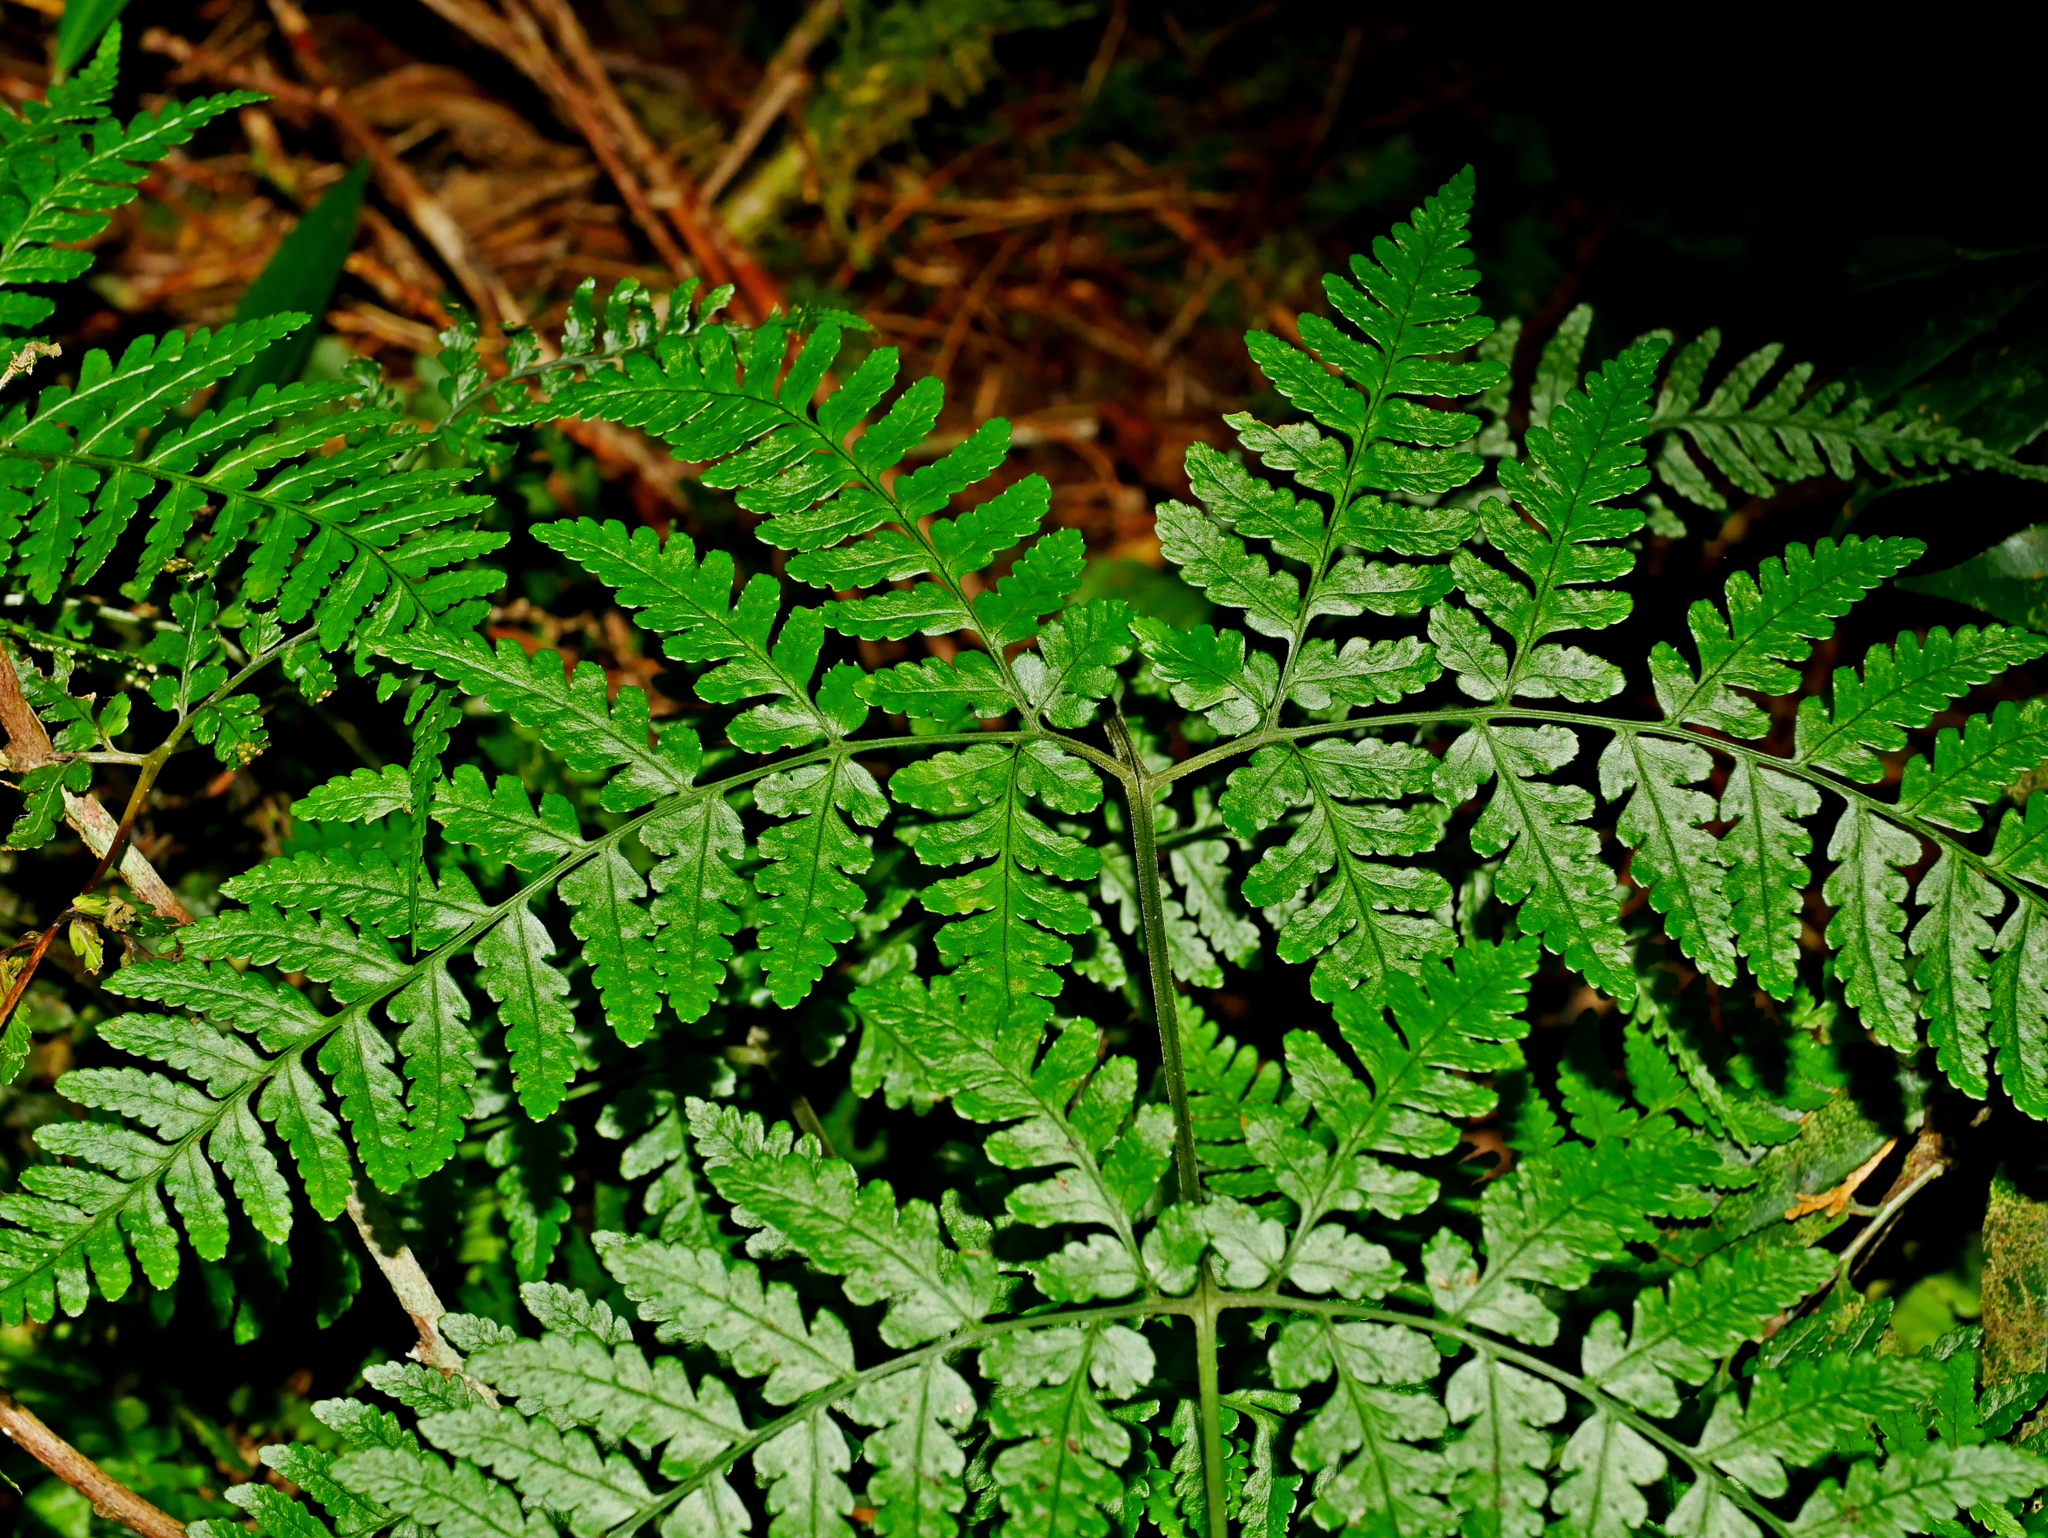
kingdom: Plantae
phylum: Tracheophyta
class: Polypodiopsida
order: Polypodiales
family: Dryopteridaceae
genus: Dryopteris
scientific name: Dryopteris sparsa
